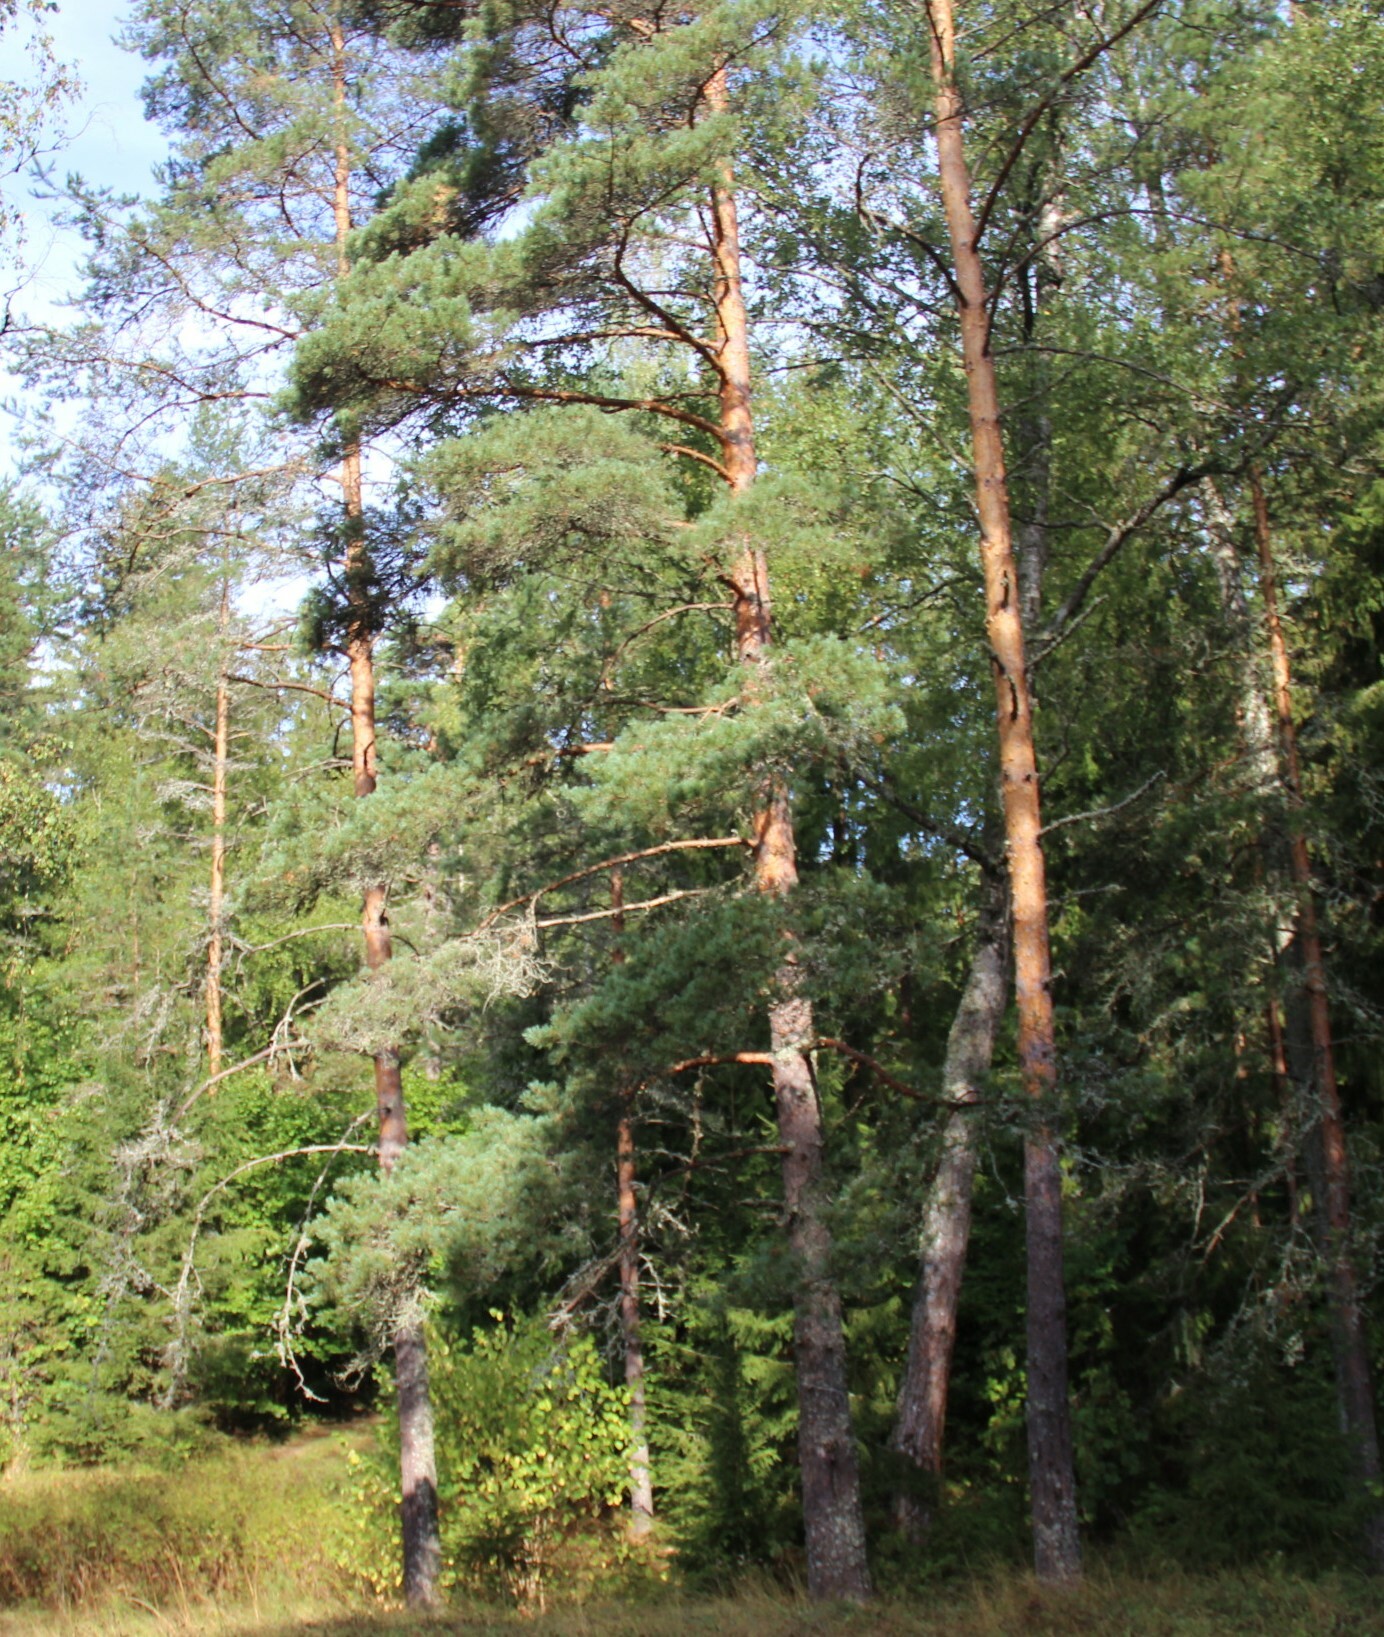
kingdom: Plantae
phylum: Tracheophyta
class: Pinopsida
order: Pinales
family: Pinaceae
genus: Pinus
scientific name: Pinus sylvestris
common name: Scots pine
